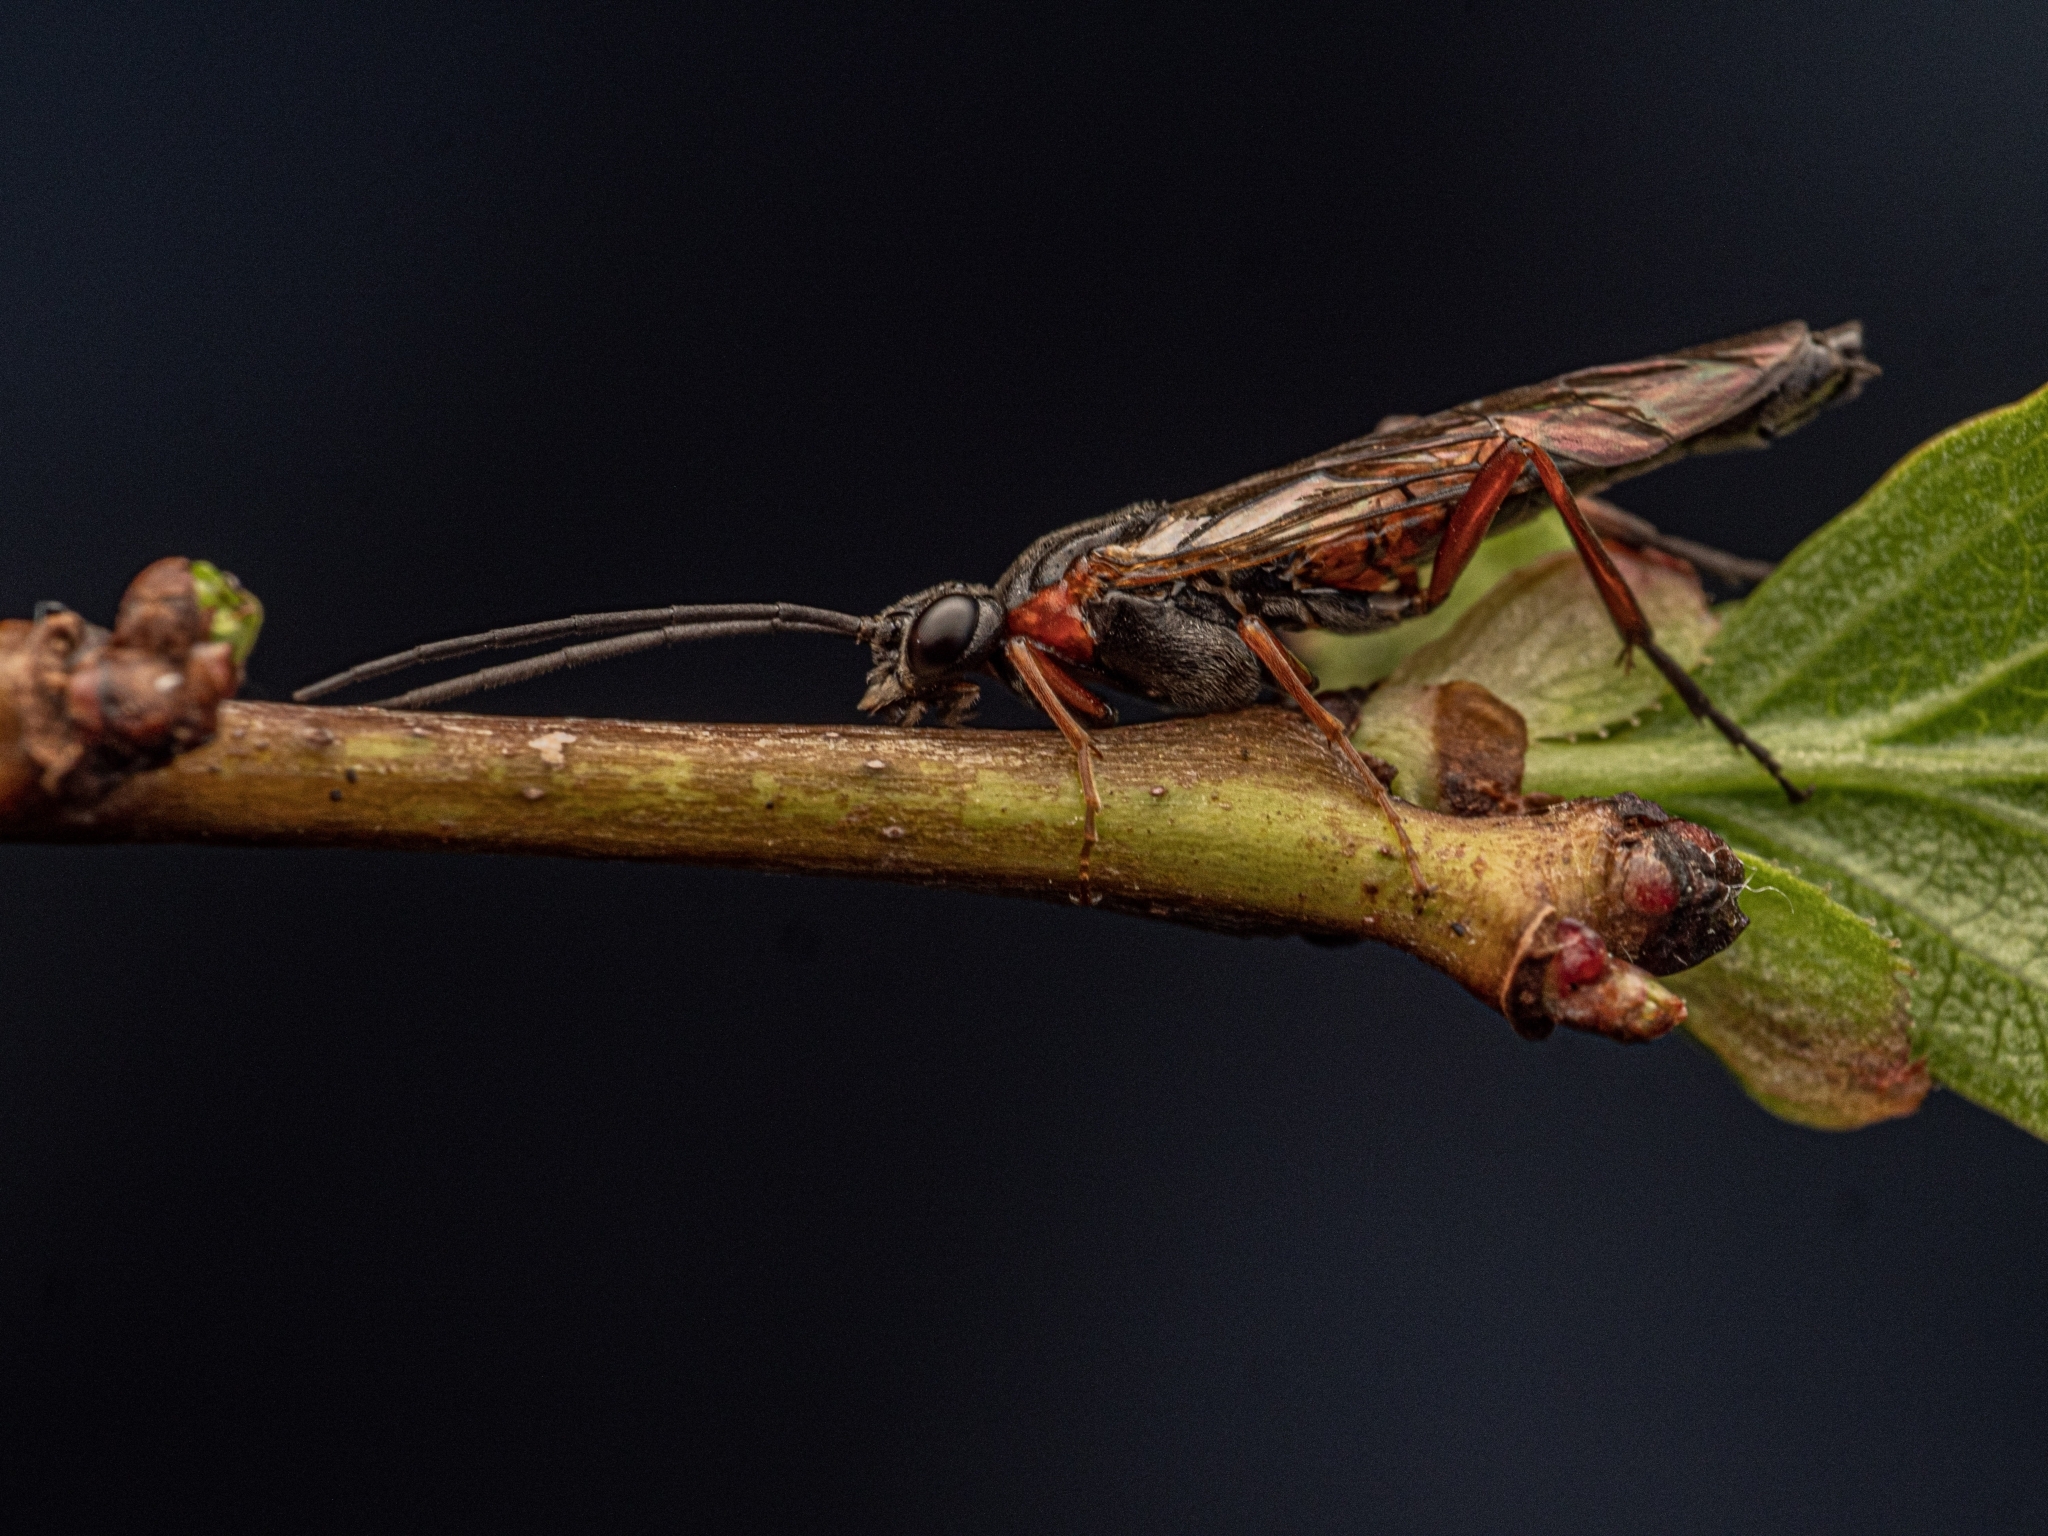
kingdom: Animalia
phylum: Arthropoda
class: Insecta
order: Hymenoptera
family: Tenthredinidae
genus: Nematus
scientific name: Nematus lucidus
